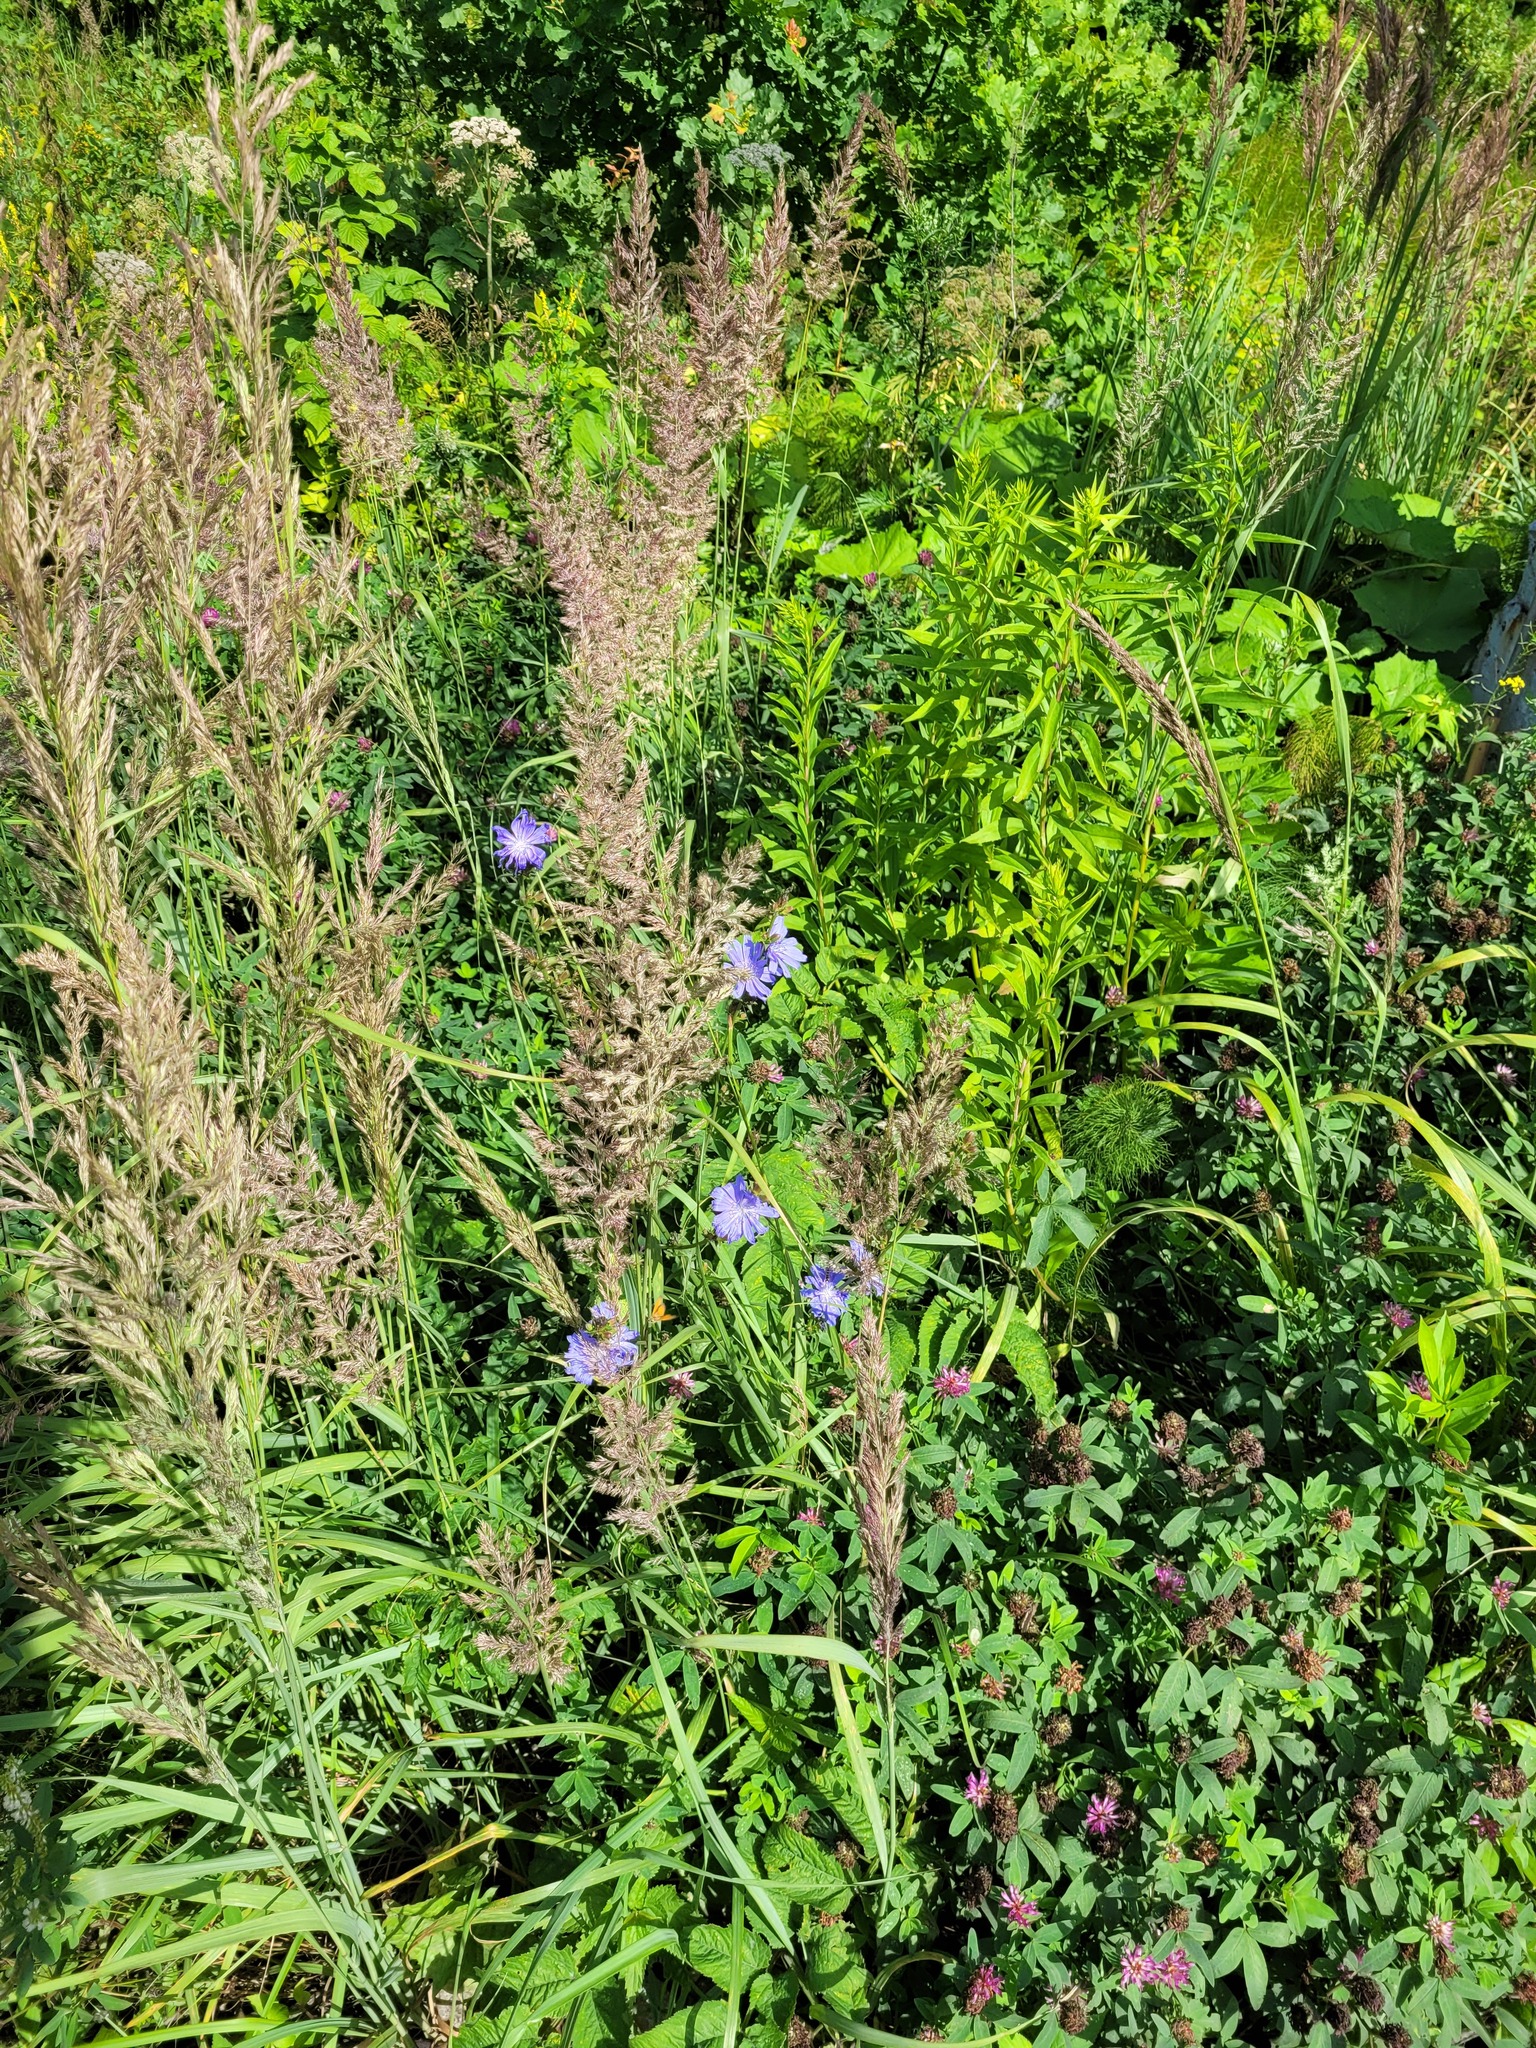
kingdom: Plantae
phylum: Tracheophyta
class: Magnoliopsida
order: Asterales
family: Asteraceae
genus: Cichorium
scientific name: Cichorium intybus
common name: Chicory
